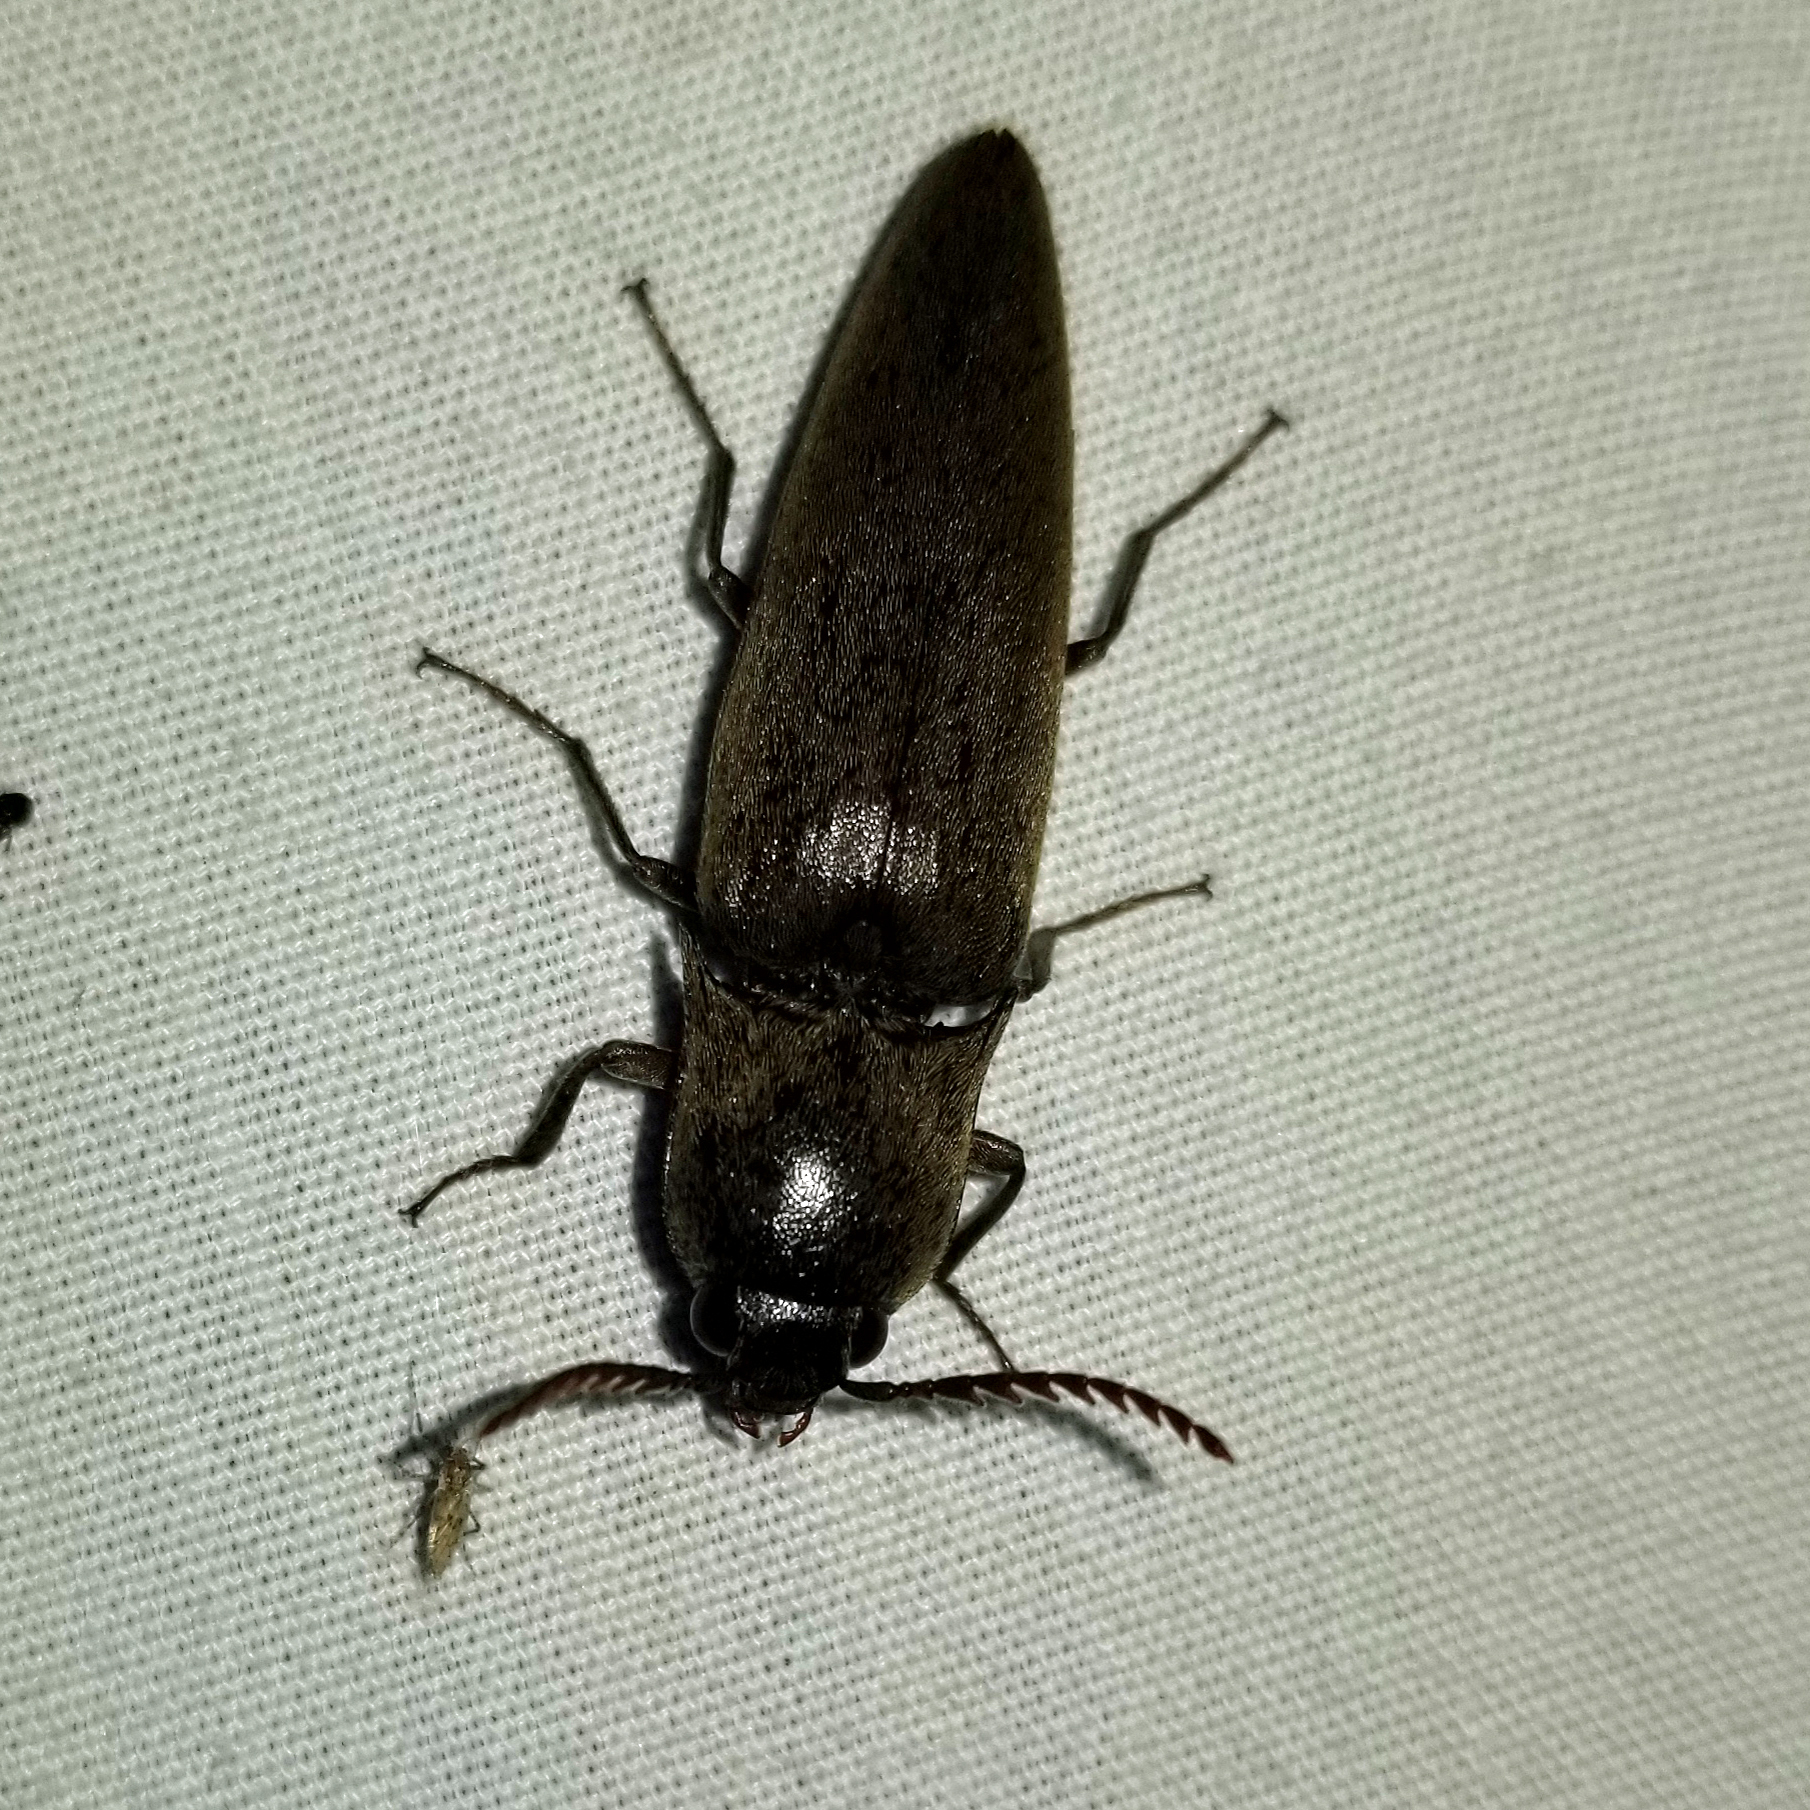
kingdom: Animalia
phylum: Arthropoda
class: Insecta
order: Coleoptera
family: Elateridae
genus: Orthostethus
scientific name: Orthostethus infuscatus
